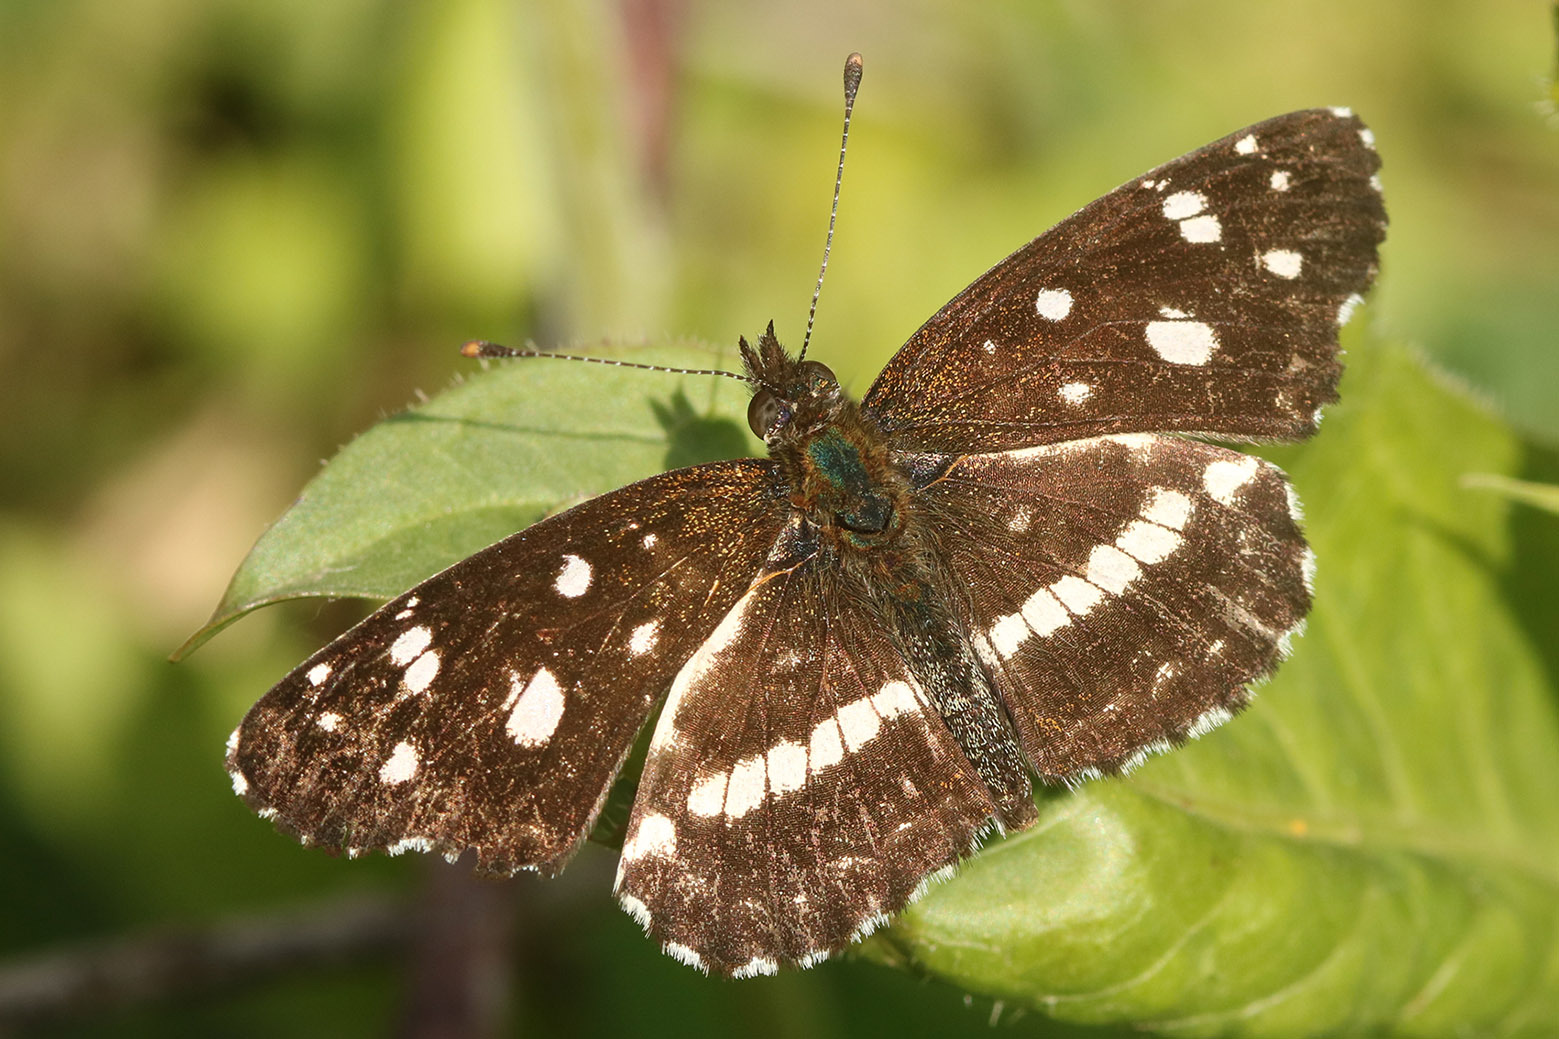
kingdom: Animalia
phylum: Arthropoda
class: Insecta
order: Lepidoptera
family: Nymphalidae
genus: Ortilia
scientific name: Ortilia ithra
